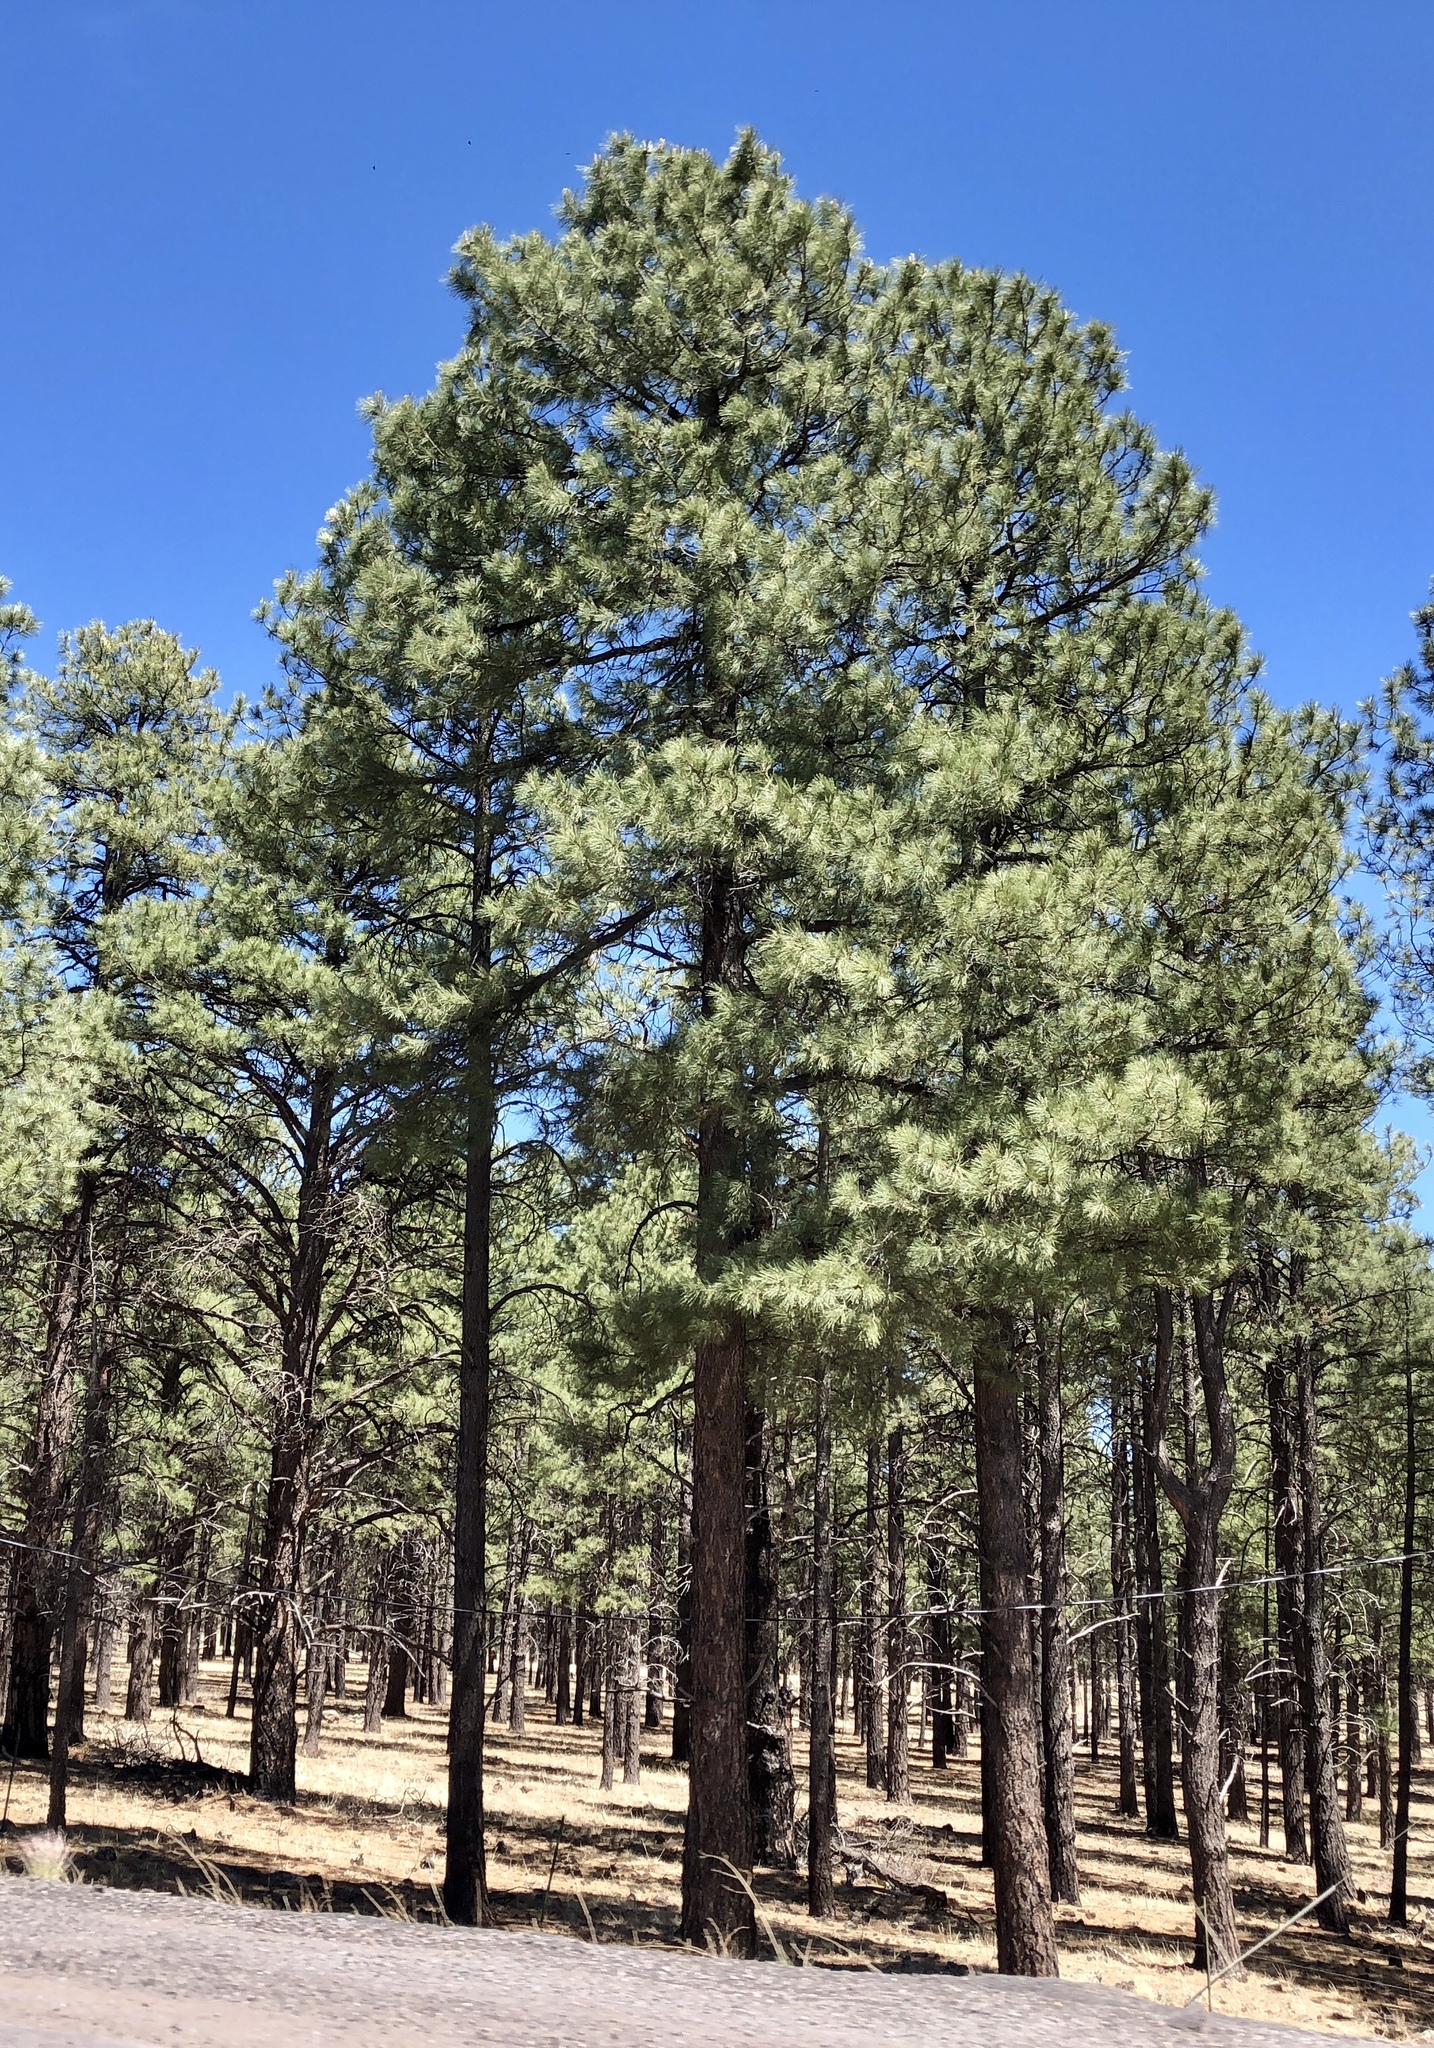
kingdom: Plantae
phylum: Tracheophyta
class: Pinopsida
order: Pinales
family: Pinaceae
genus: Pinus
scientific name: Pinus ponderosa
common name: Western yellow-pine
